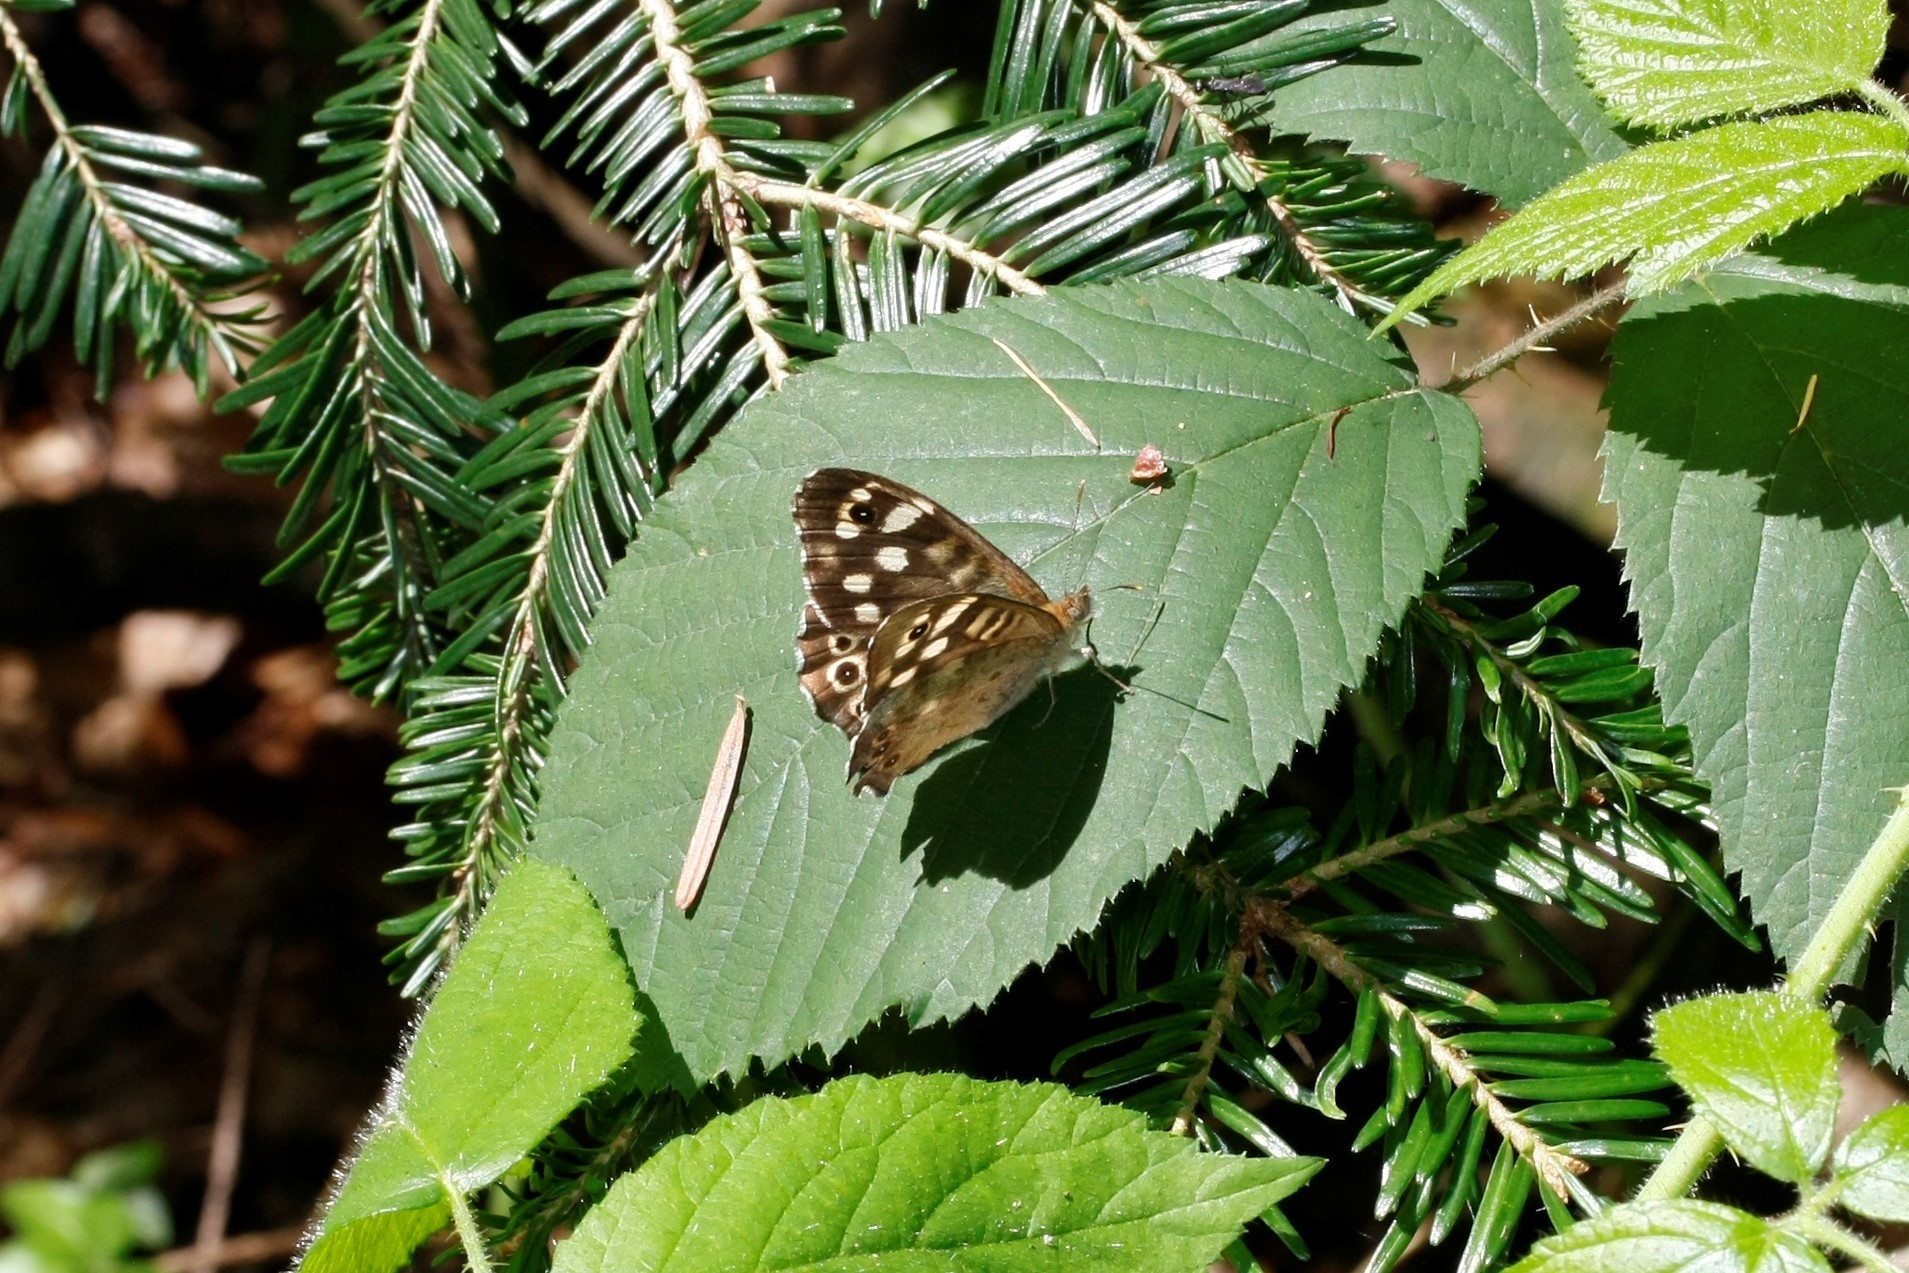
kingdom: Animalia
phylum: Arthropoda
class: Insecta
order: Lepidoptera
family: Nymphalidae
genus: Pararge
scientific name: Pararge aegeria
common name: Speckled wood
